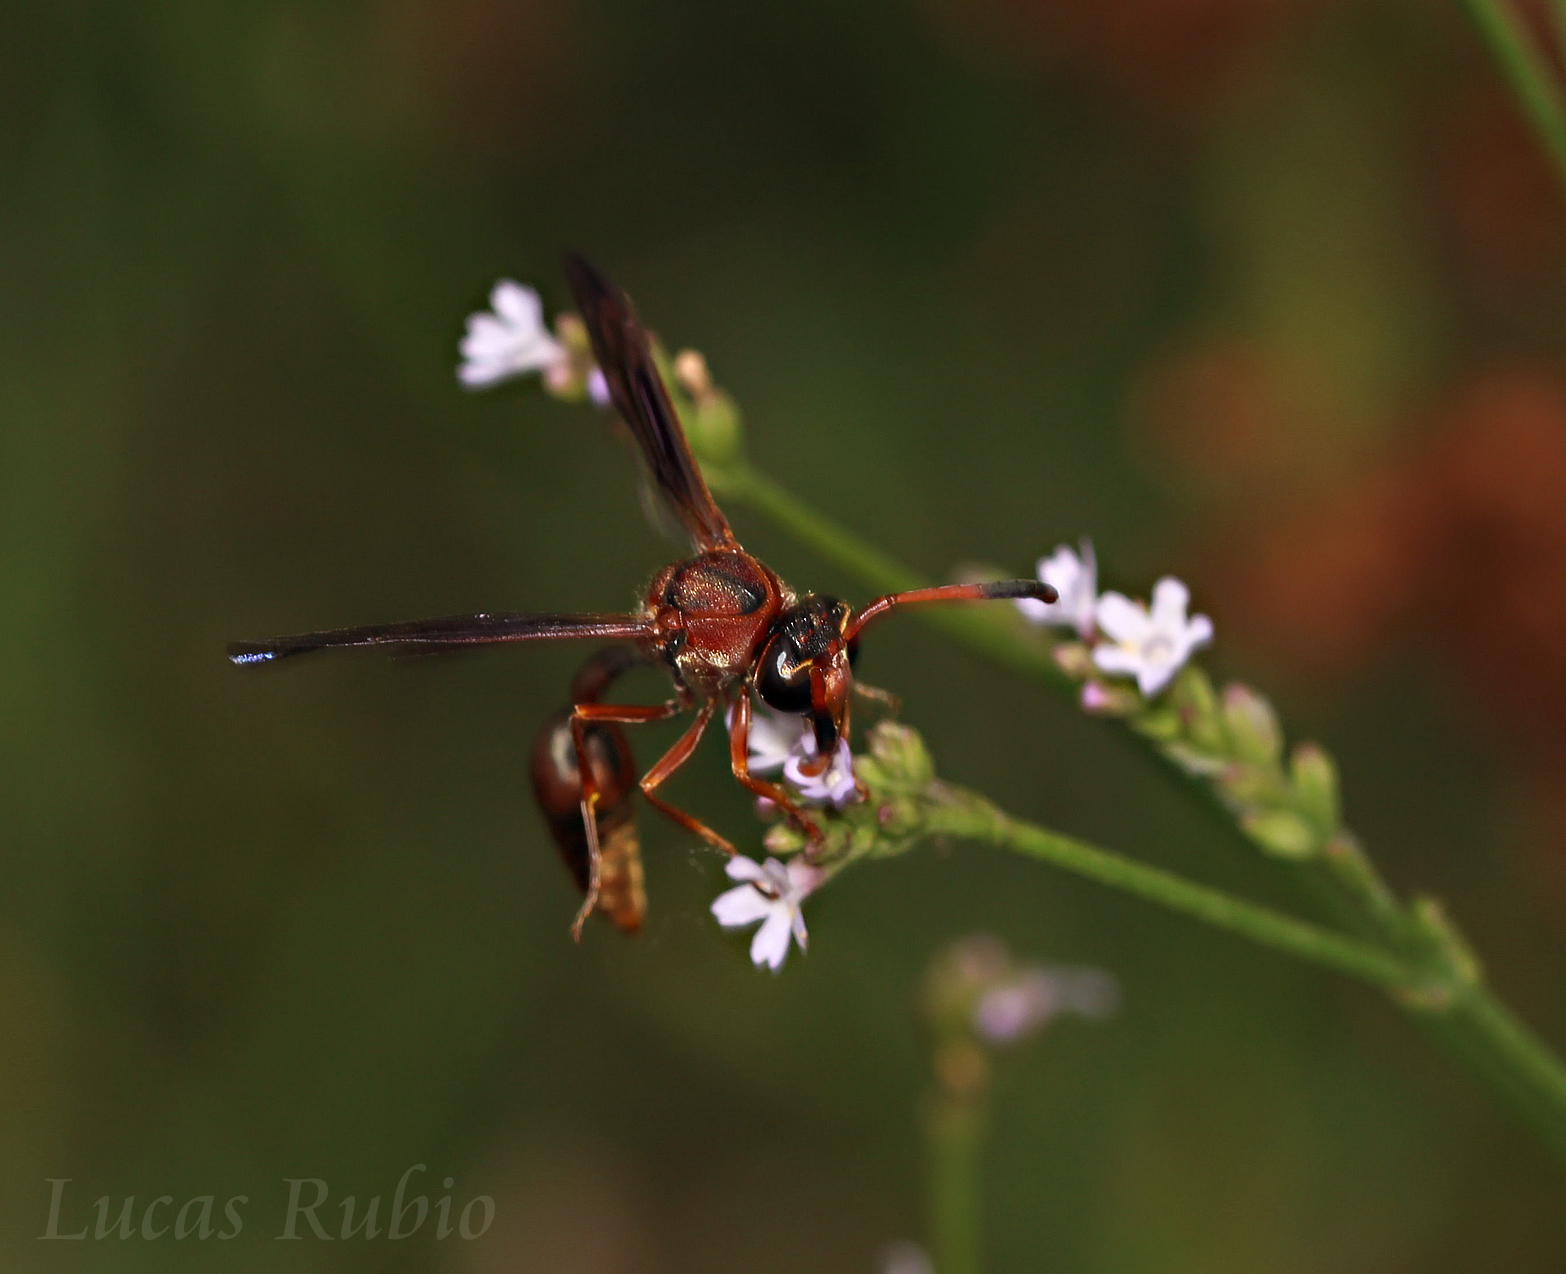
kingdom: Animalia
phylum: Arthropoda
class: Insecta
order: Hymenoptera
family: Eumenidae
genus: Zeta
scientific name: Zeta argillaceum
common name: Potter wasp
